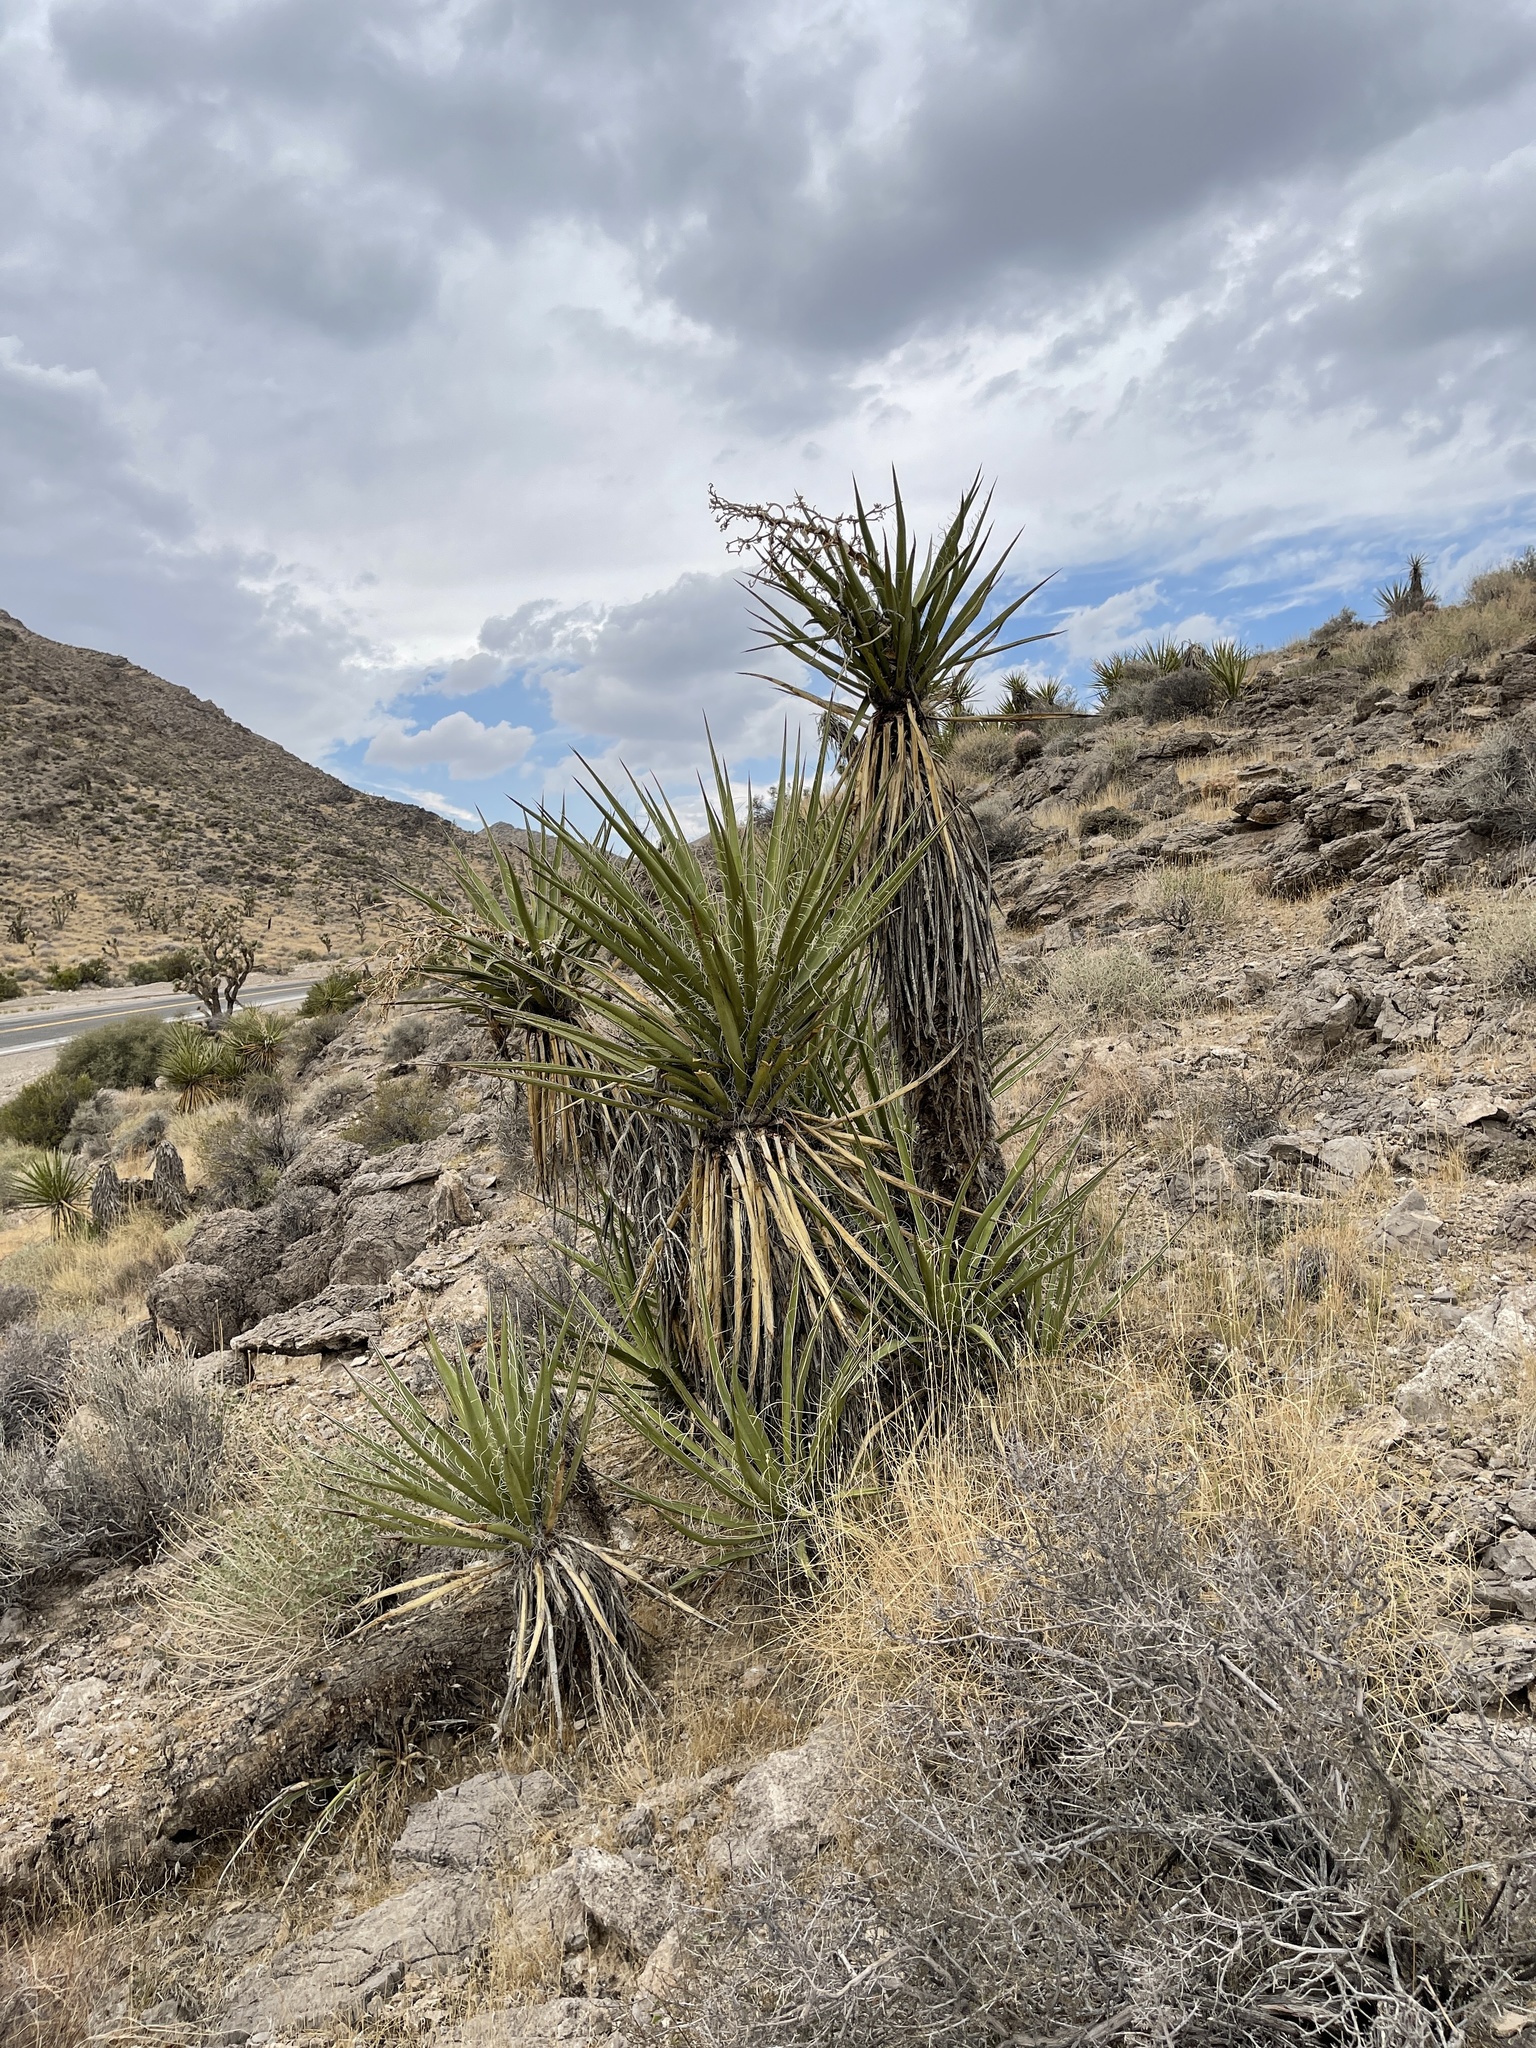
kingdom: Plantae
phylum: Tracheophyta
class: Liliopsida
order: Asparagales
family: Asparagaceae
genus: Yucca
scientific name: Yucca schidigera
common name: Mojave yucca
